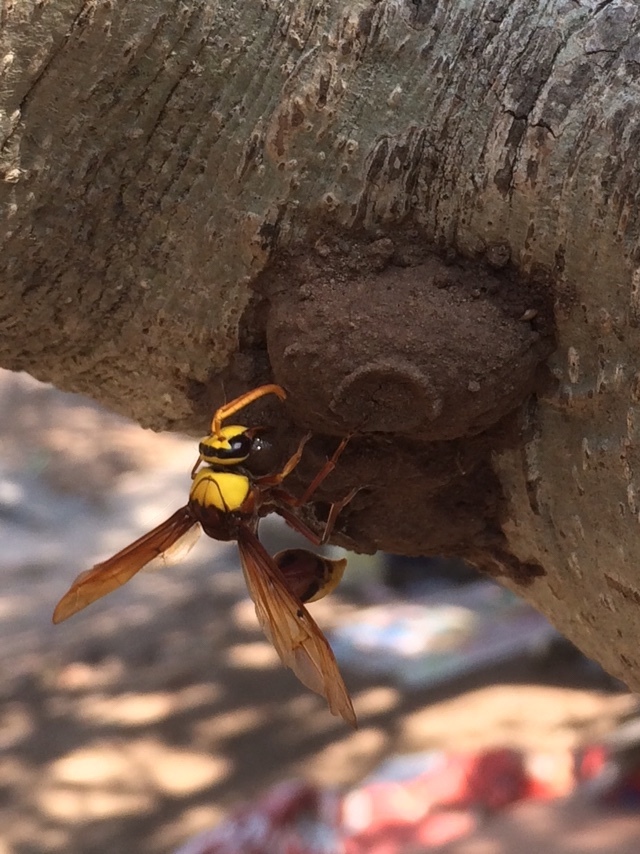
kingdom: Animalia
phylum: Arthropoda
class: Insecta
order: Hymenoptera
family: Eumenidae
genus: Delta
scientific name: Delta pyriforme
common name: Wasp
